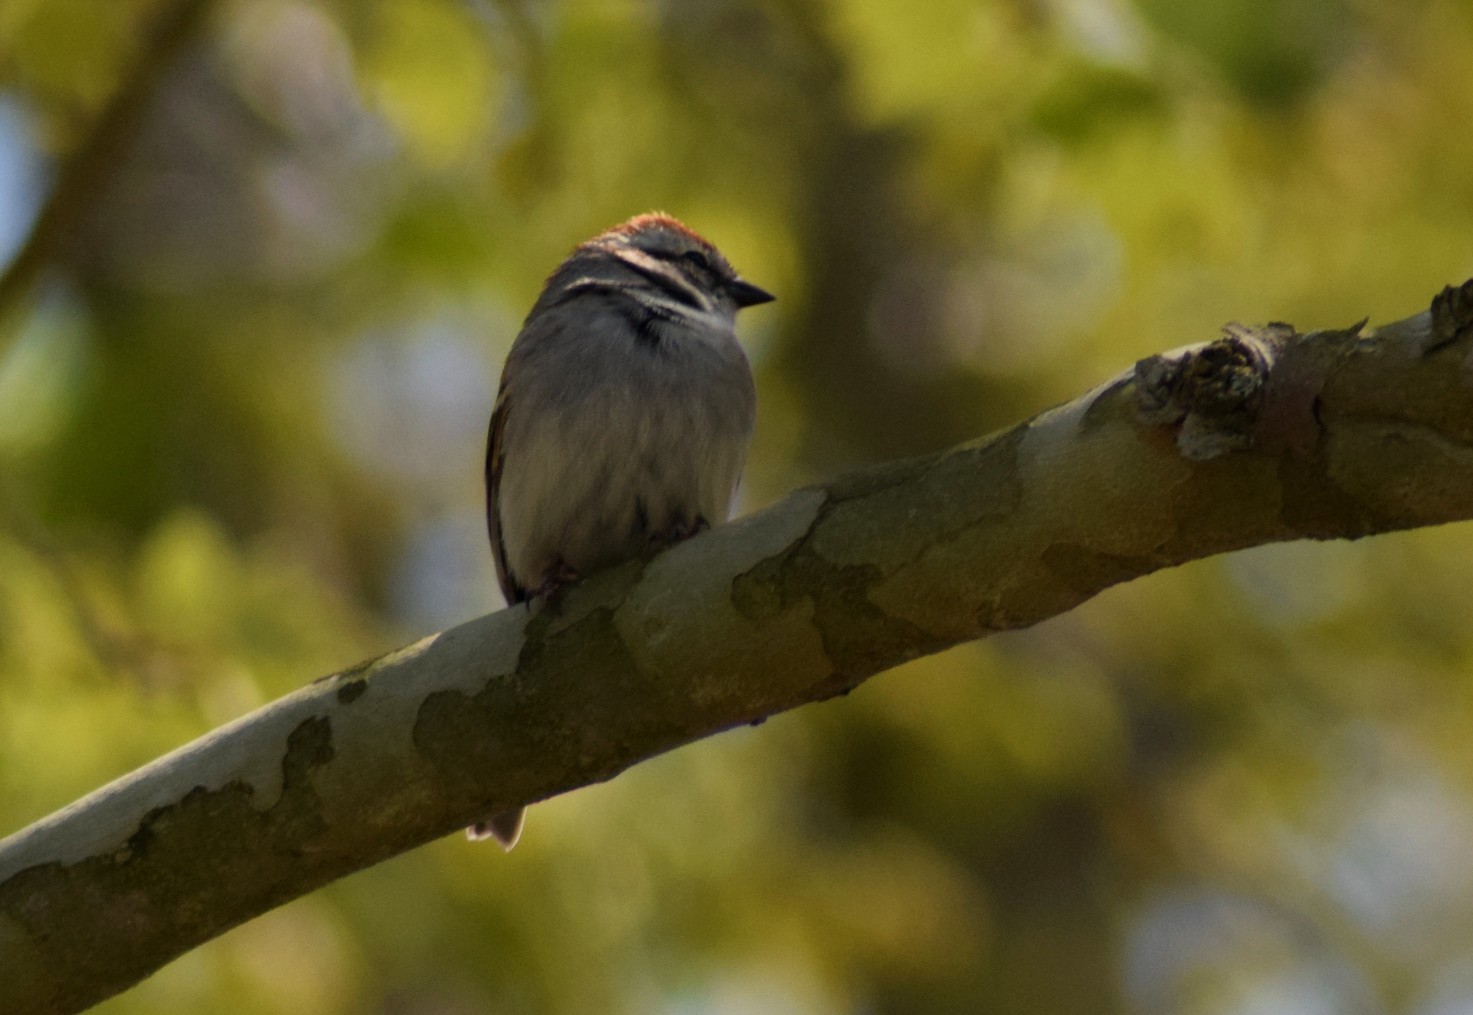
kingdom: Animalia
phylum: Chordata
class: Aves
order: Passeriformes
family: Passerellidae
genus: Spizella
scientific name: Spizella passerina
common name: Chipping sparrow
